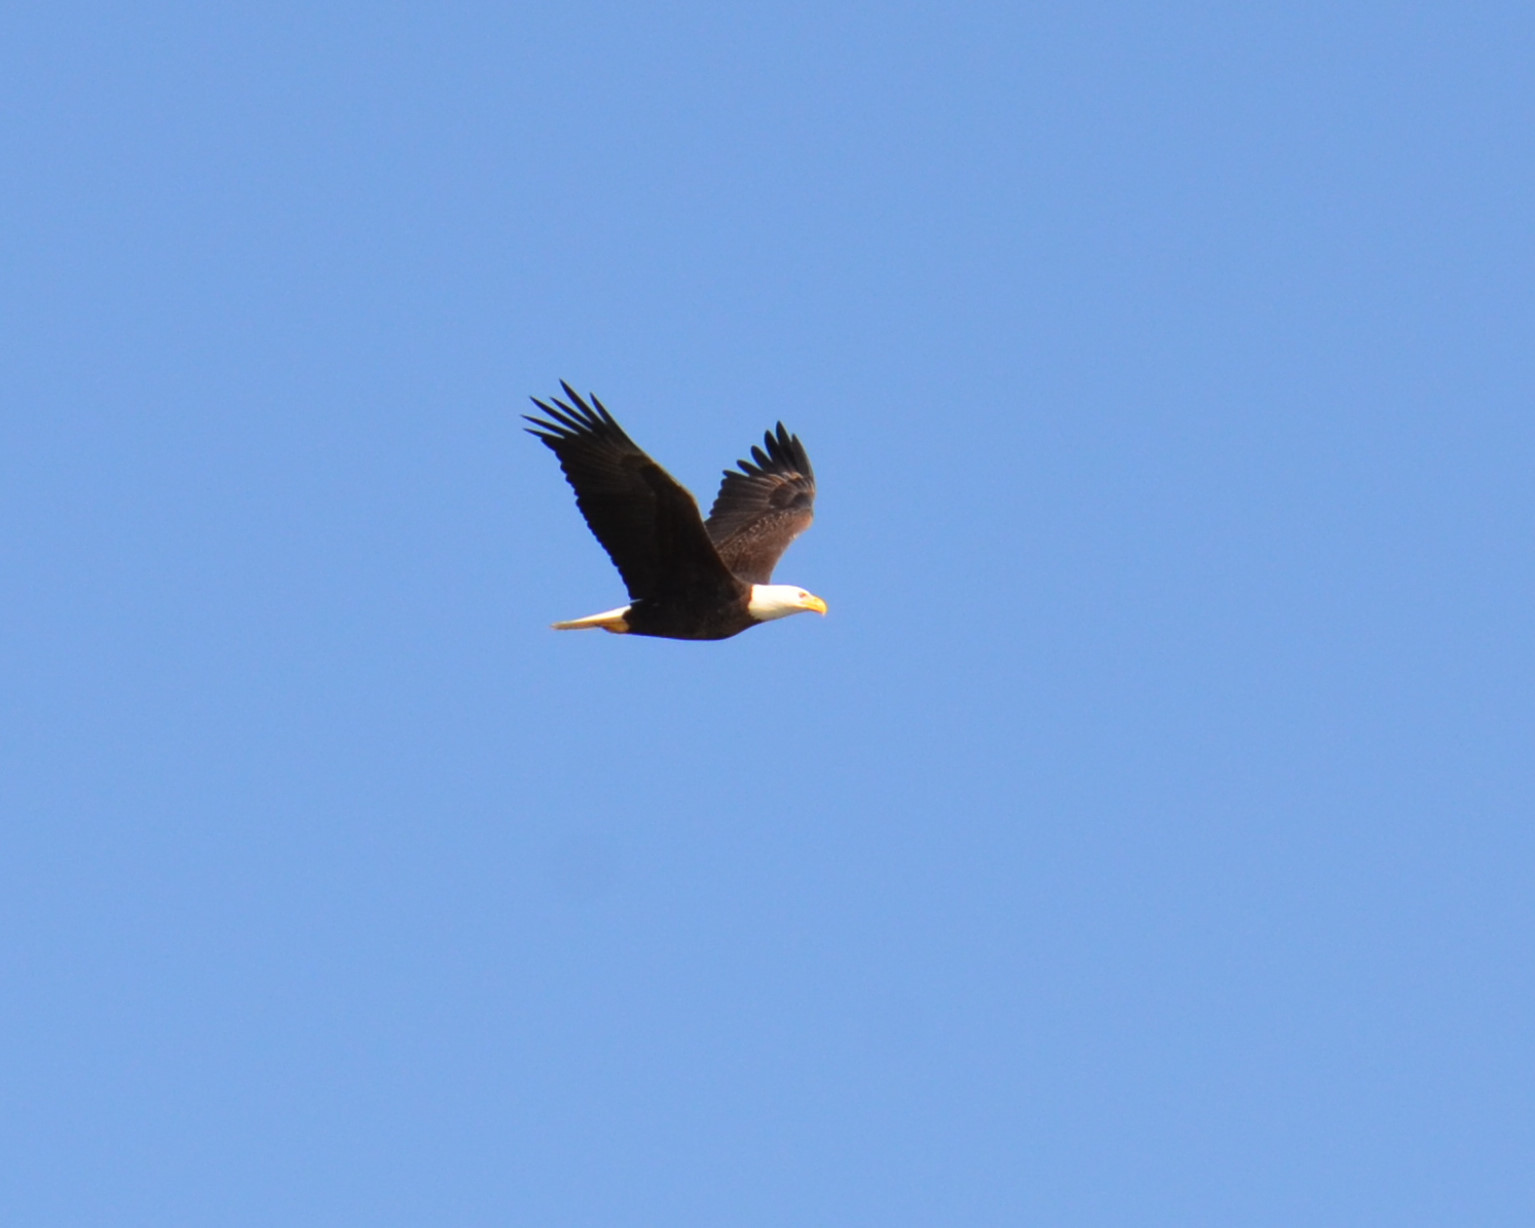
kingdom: Animalia
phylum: Chordata
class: Aves
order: Accipitriformes
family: Accipitridae
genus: Haliaeetus
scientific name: Haliaeetus leucocephalus
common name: Bald eagle
